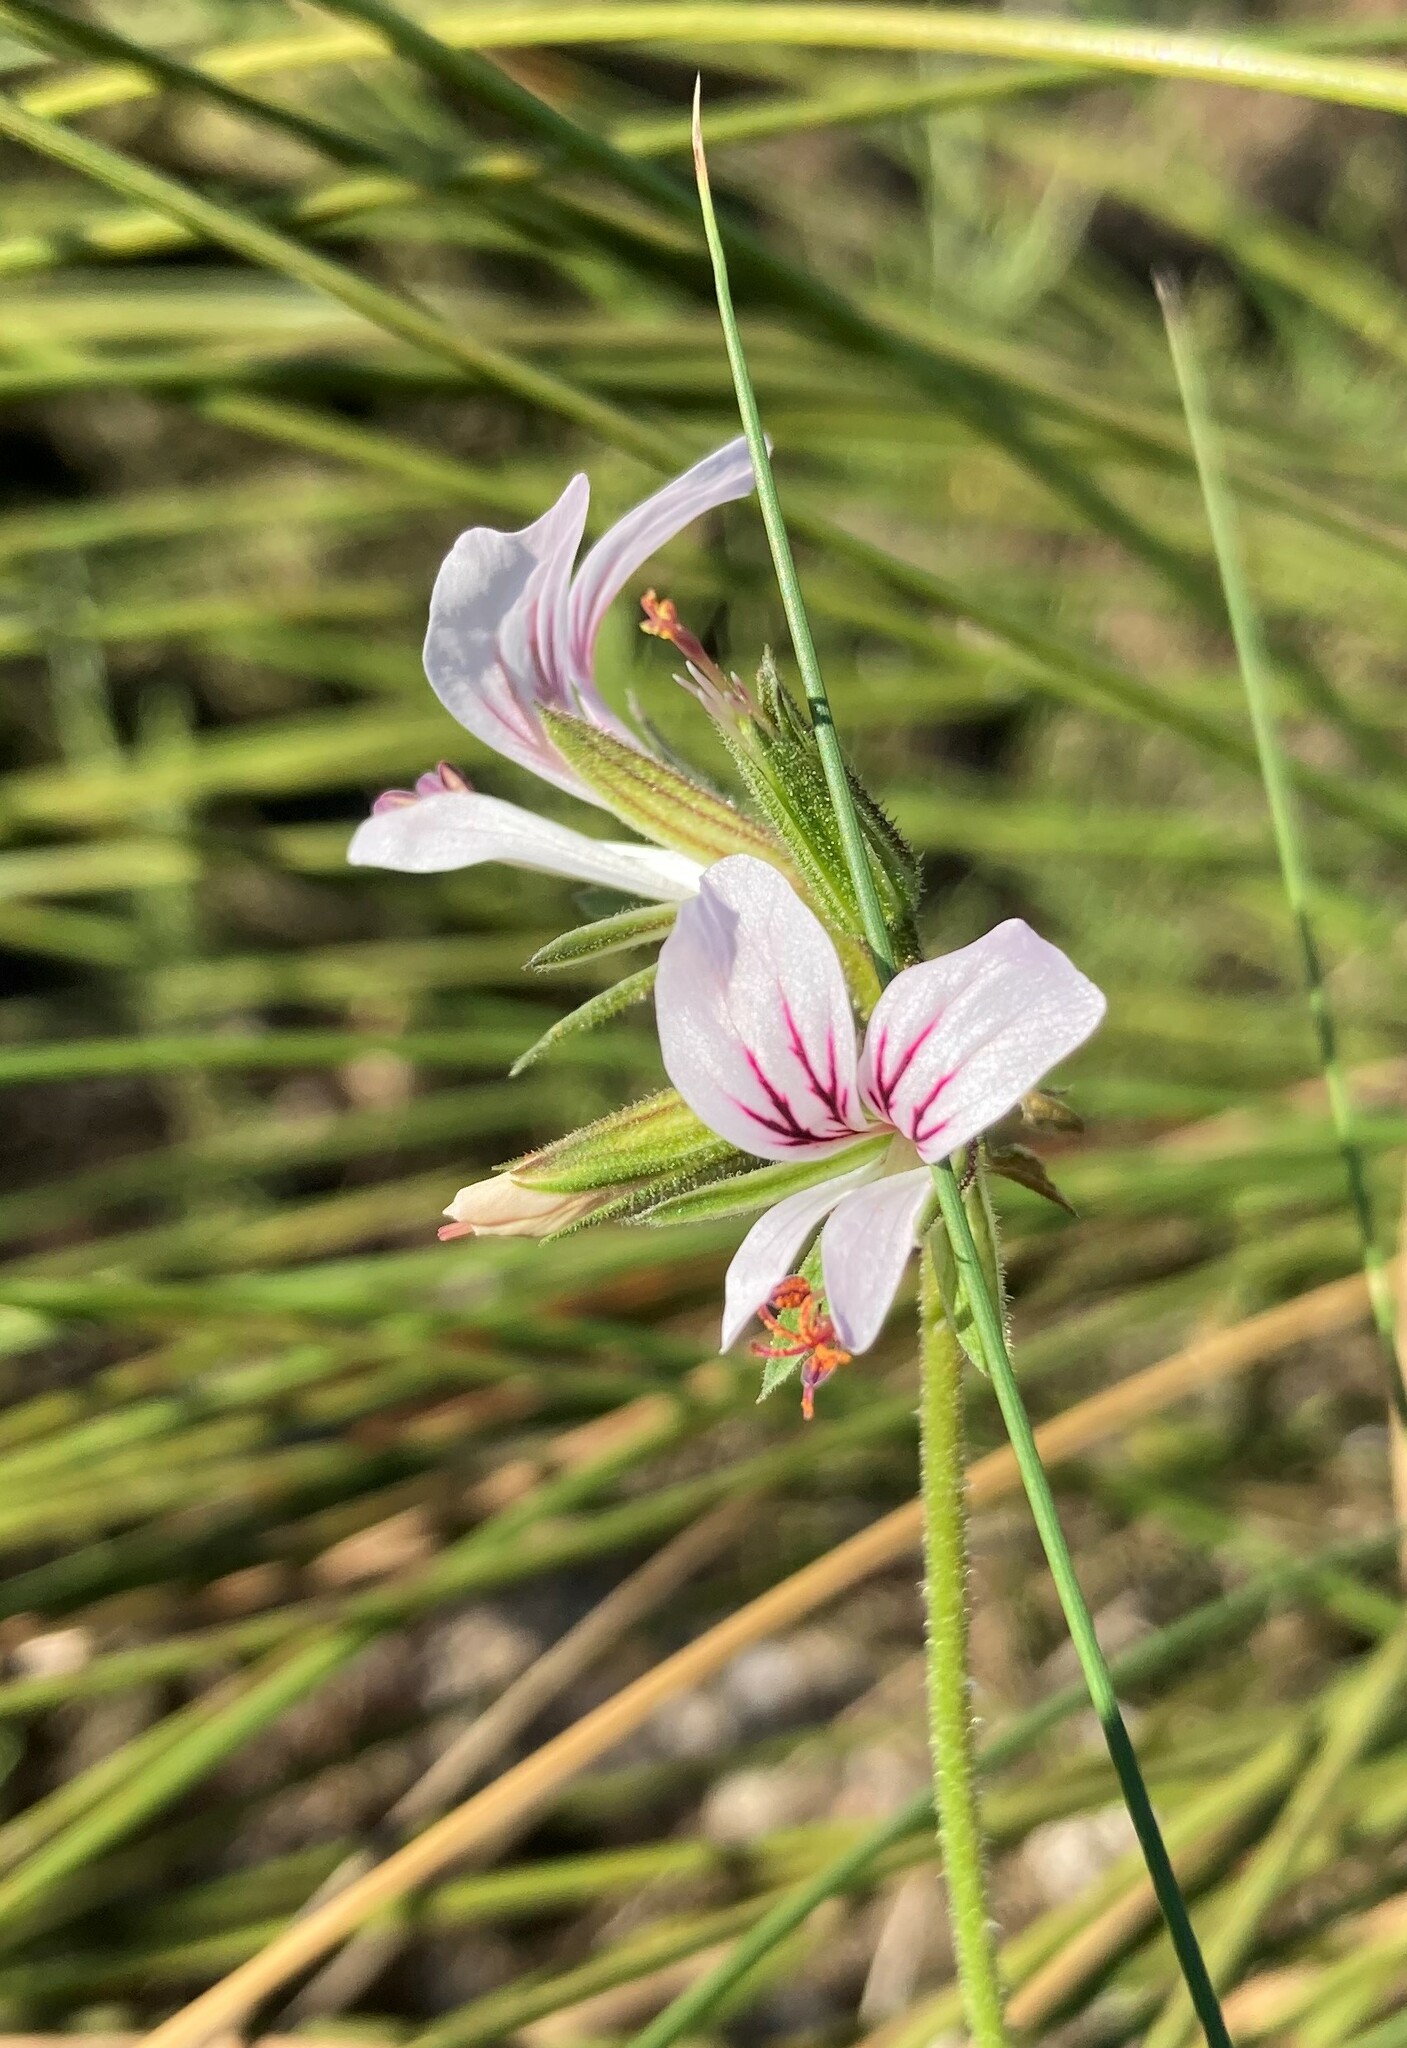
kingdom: Plantae
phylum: Tracheophyta
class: Magnoliopsida
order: Geraniales
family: Geraniaceae
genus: Pelargonium
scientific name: Pelargonium myrrhifolium
